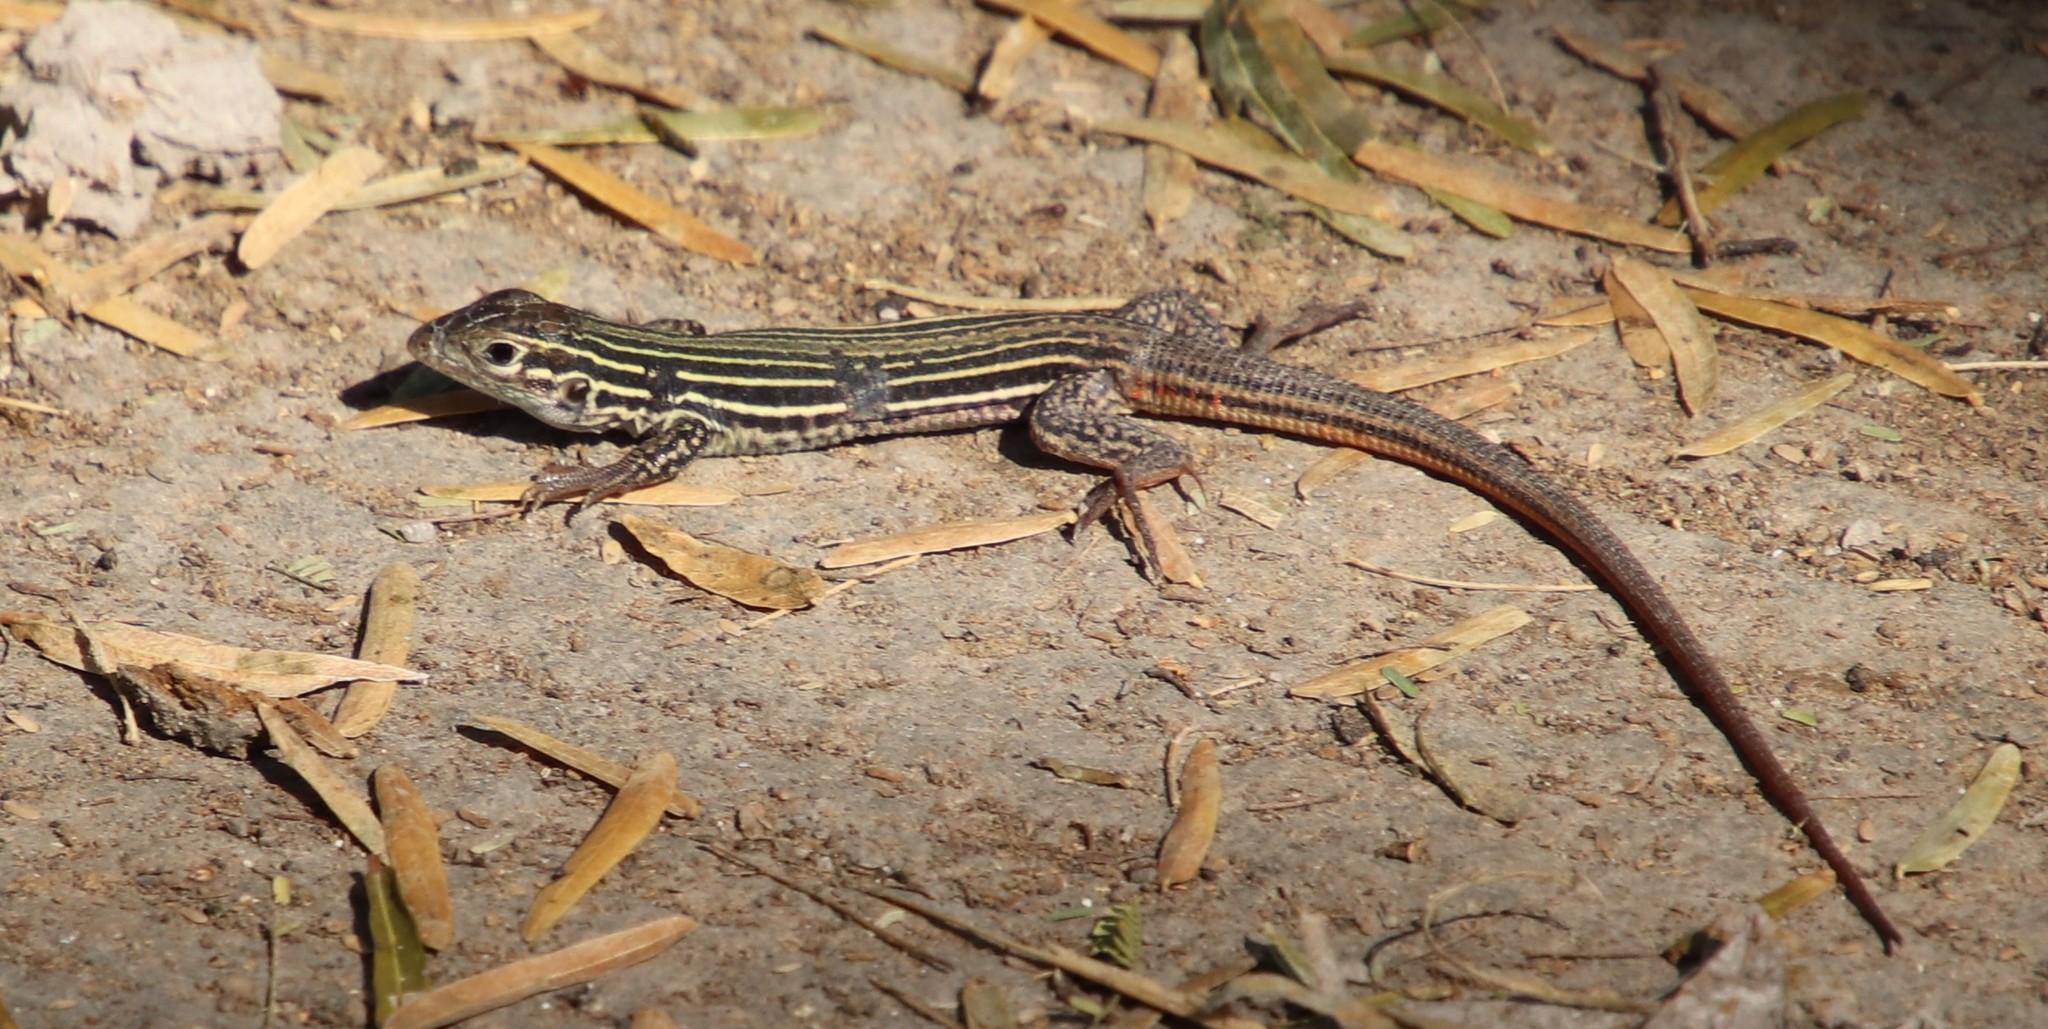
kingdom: Animalia
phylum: Chordata
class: Squamata
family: Teiidae
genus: Aspidoscelis
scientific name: Aspidoscelis gularis
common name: Eastern spotted whiptail
